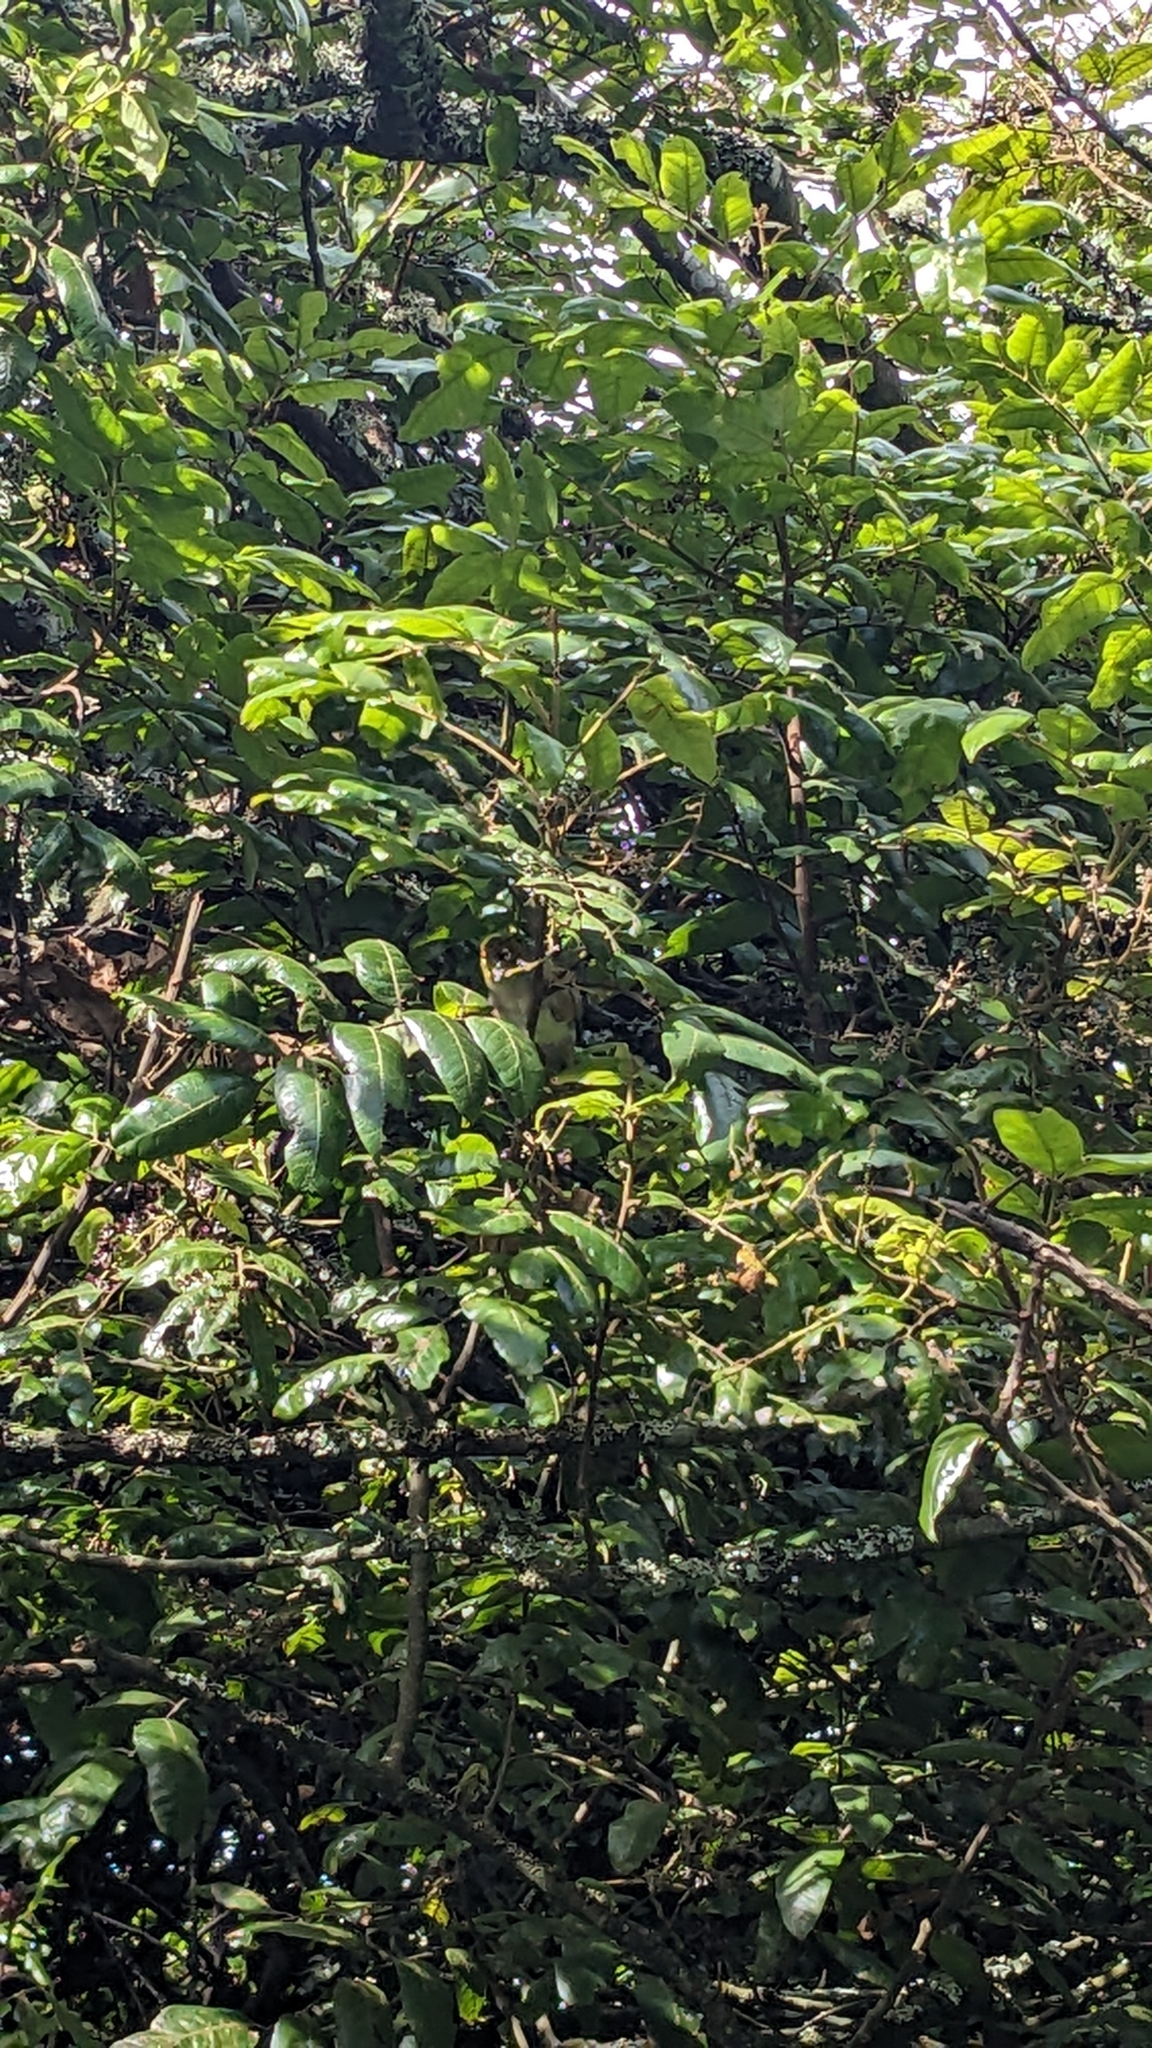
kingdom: Animalia
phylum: Chordata
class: Aves
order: Passeriformes
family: Zosteropidae
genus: Zosterops
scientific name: Zosterops lateralis
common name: Silvereye
